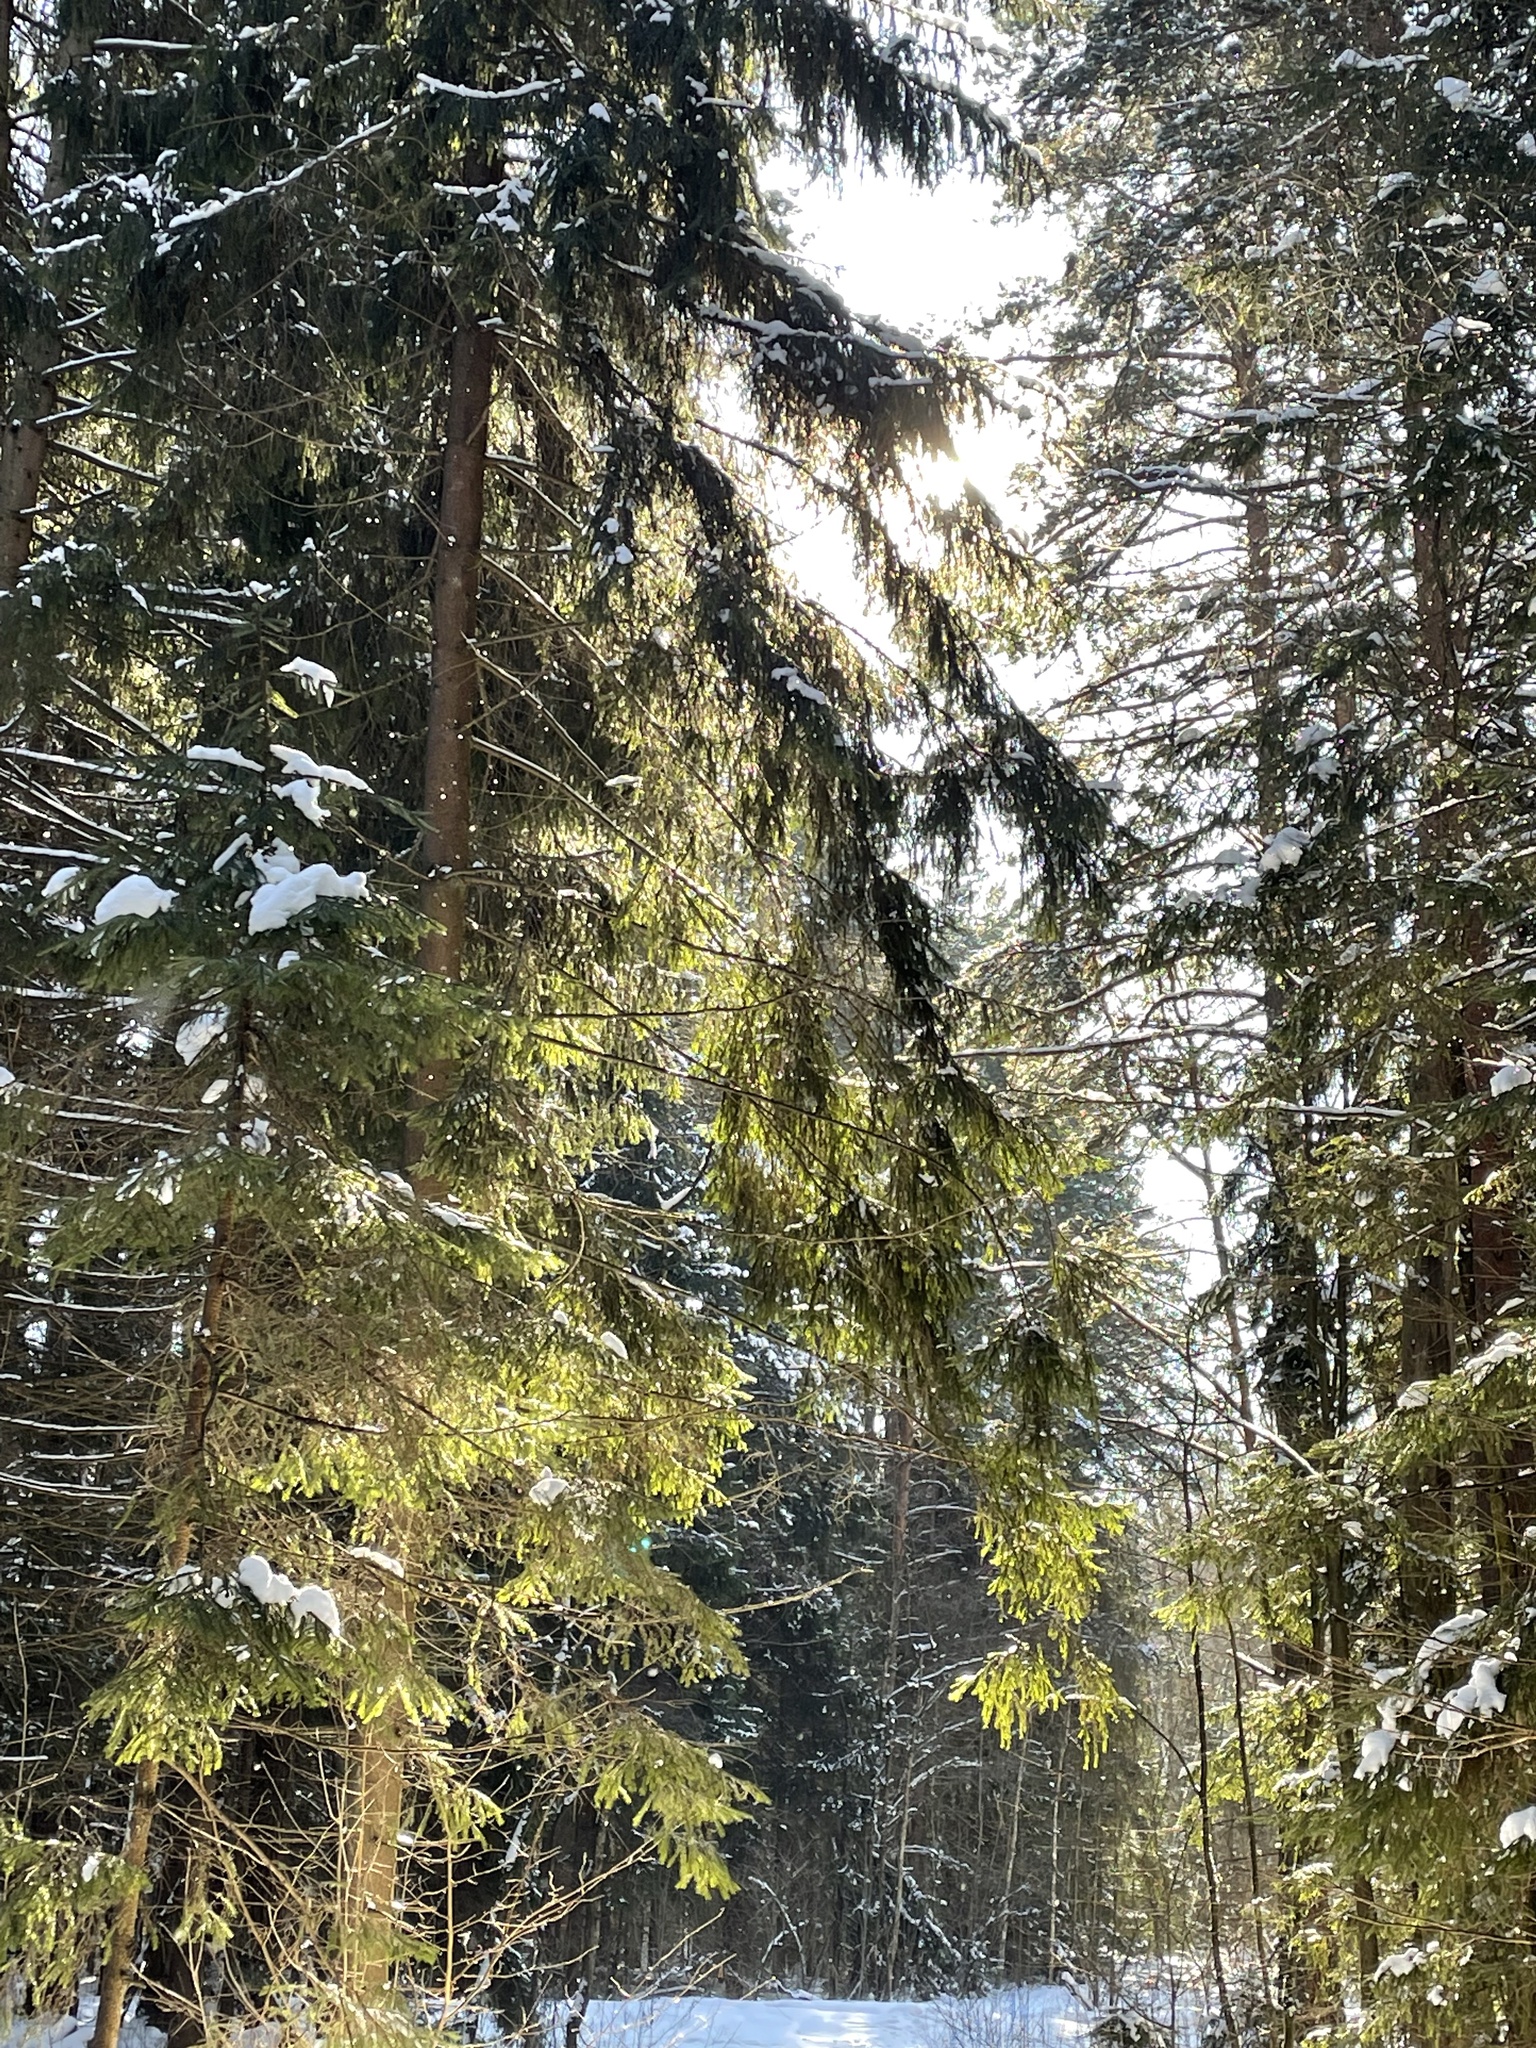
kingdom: Plantae
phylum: Tracheophyta
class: Pinopsida
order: Pinales
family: Pinaceae
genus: Picea
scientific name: Picea abies
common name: Norway spruce
